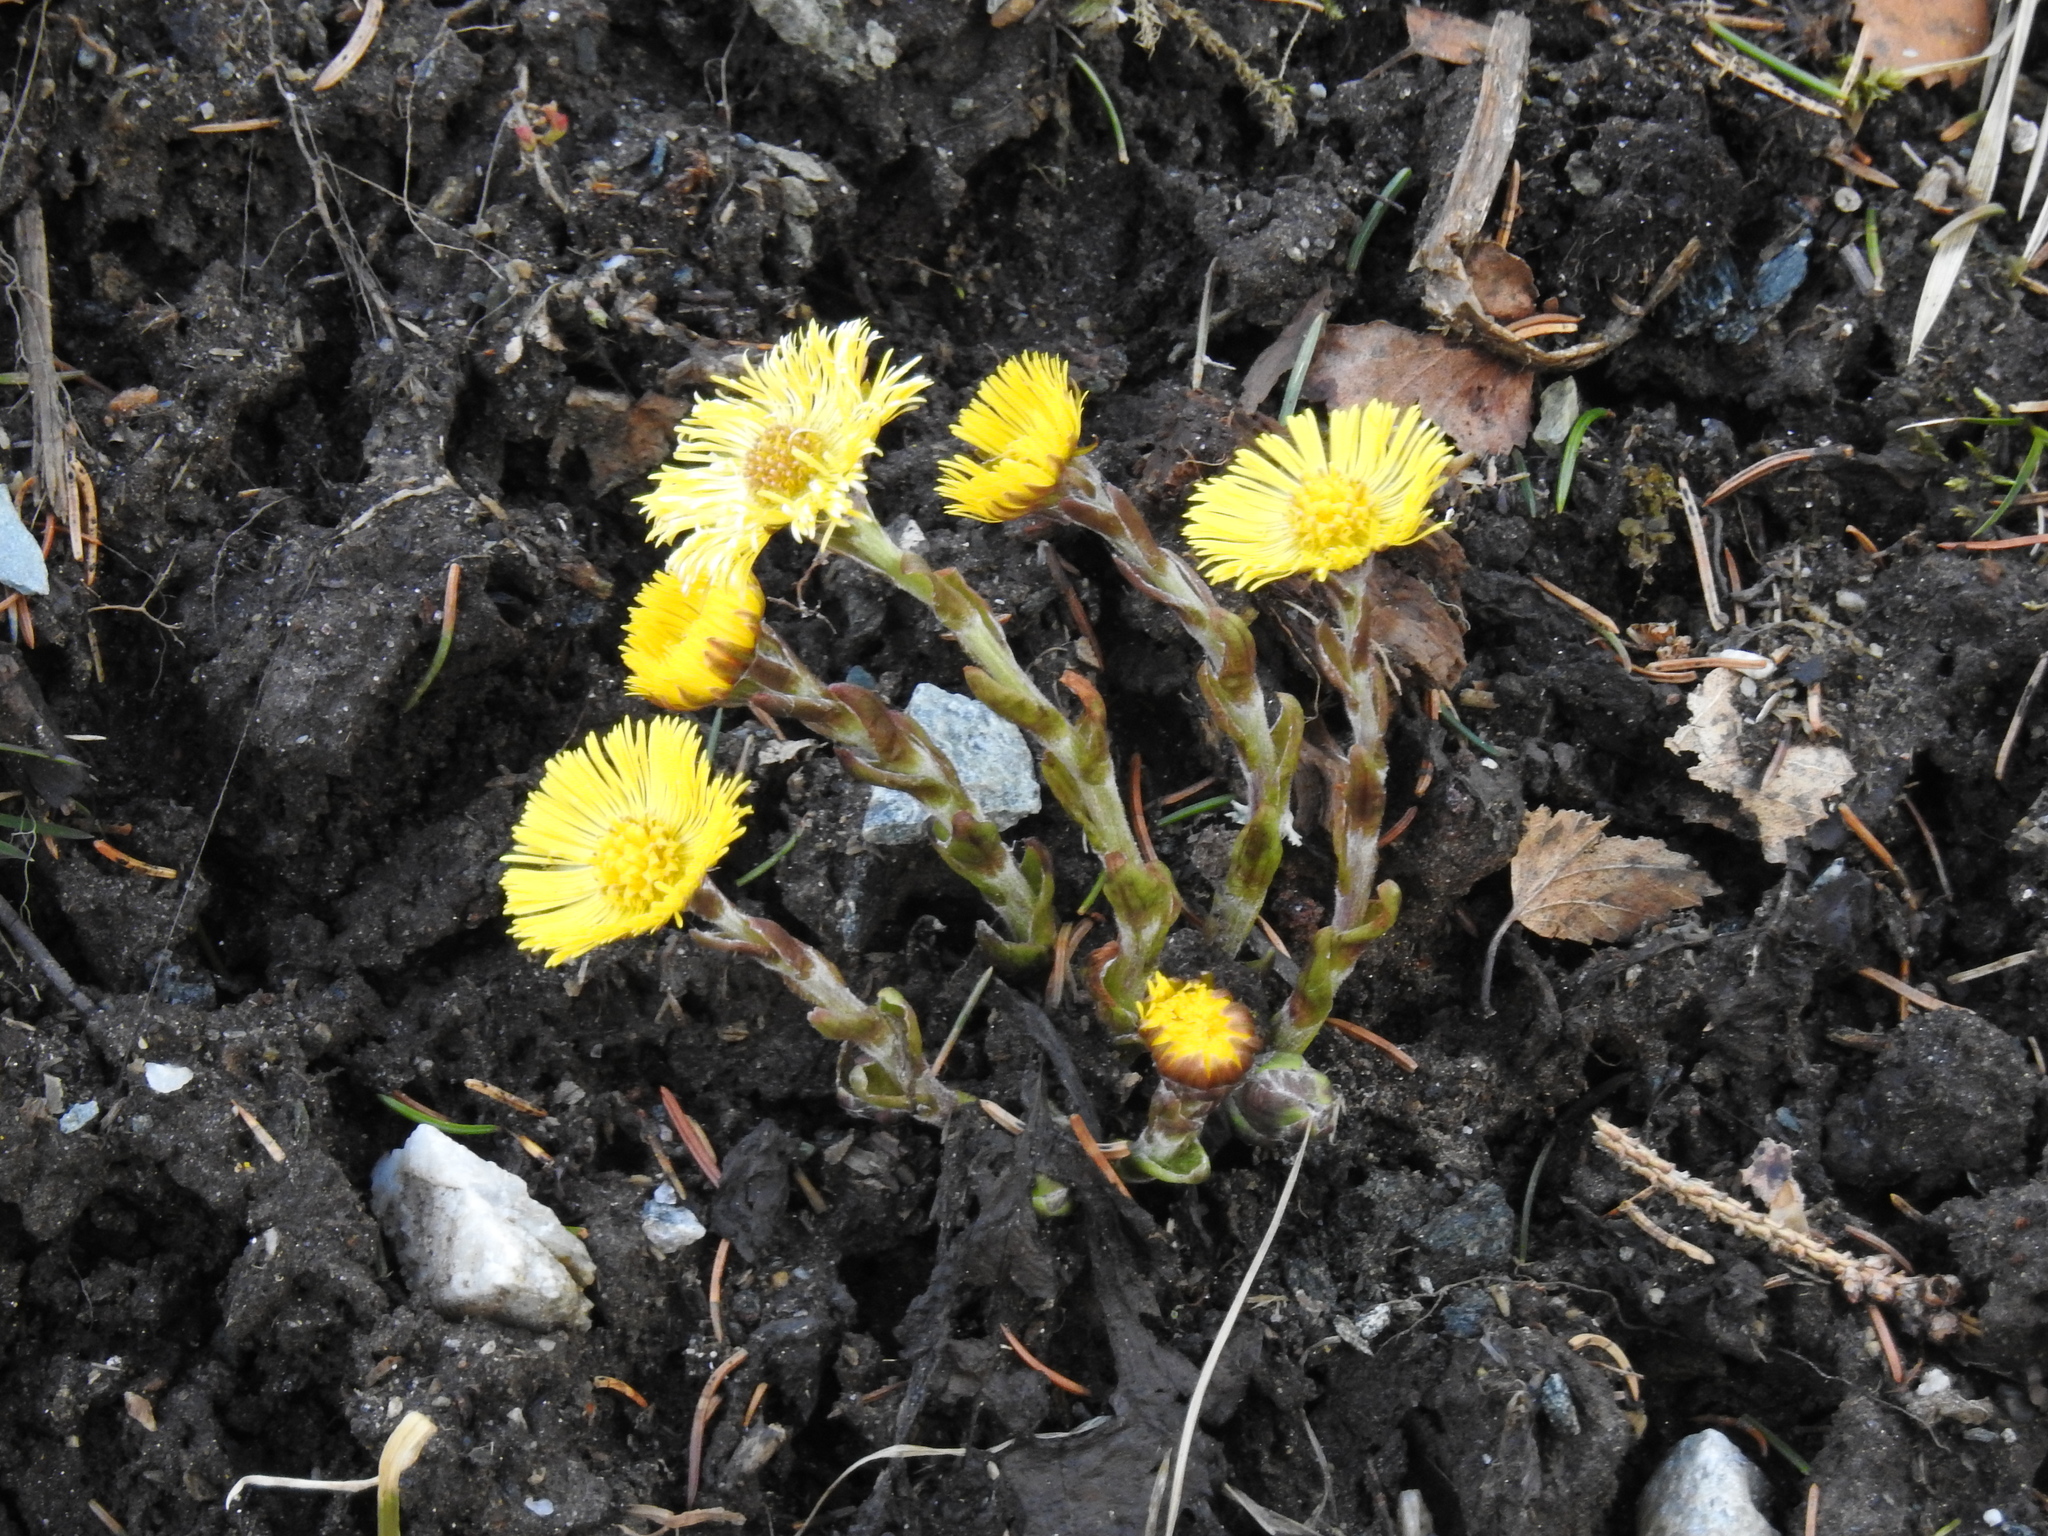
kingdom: Plantae
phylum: Tracheophyta
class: Magnoliopsida
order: Asterales
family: Asteraceae
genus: Tussilago
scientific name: Tussilago farfara
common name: Coltsfoot
